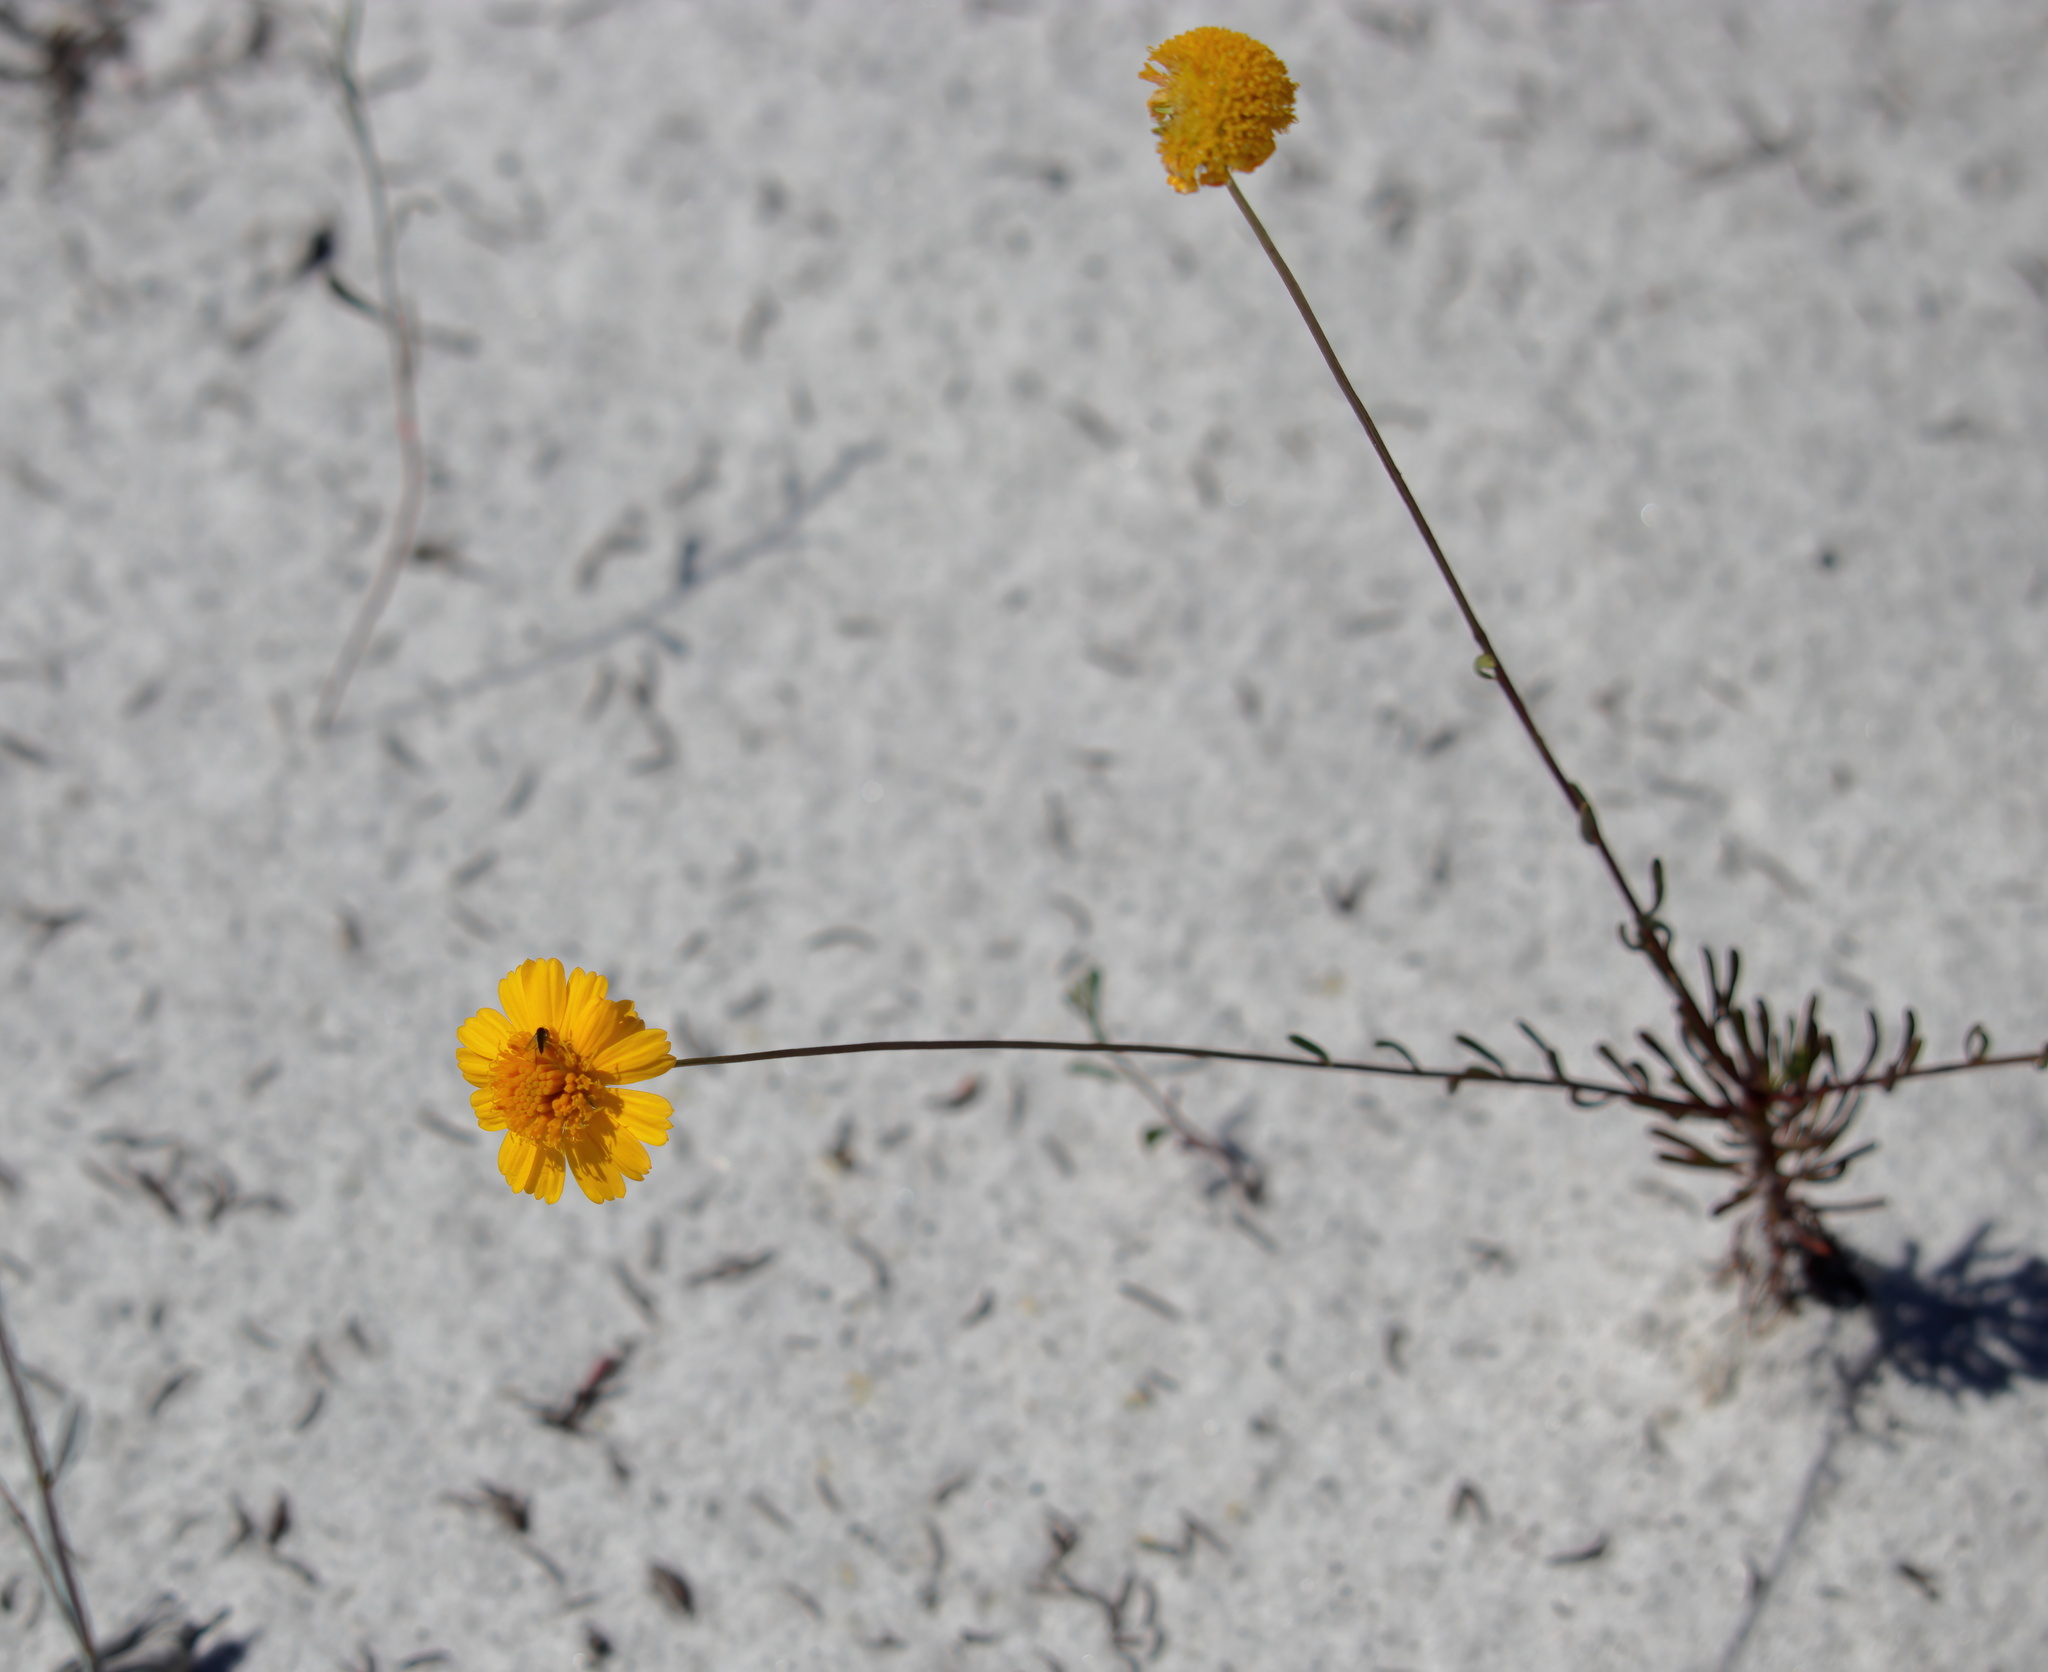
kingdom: Plantae
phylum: Tracheophyta
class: Magnoliopsida
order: Asterales
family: Asteraceae
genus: Balduina
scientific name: Balduina angustifolia
